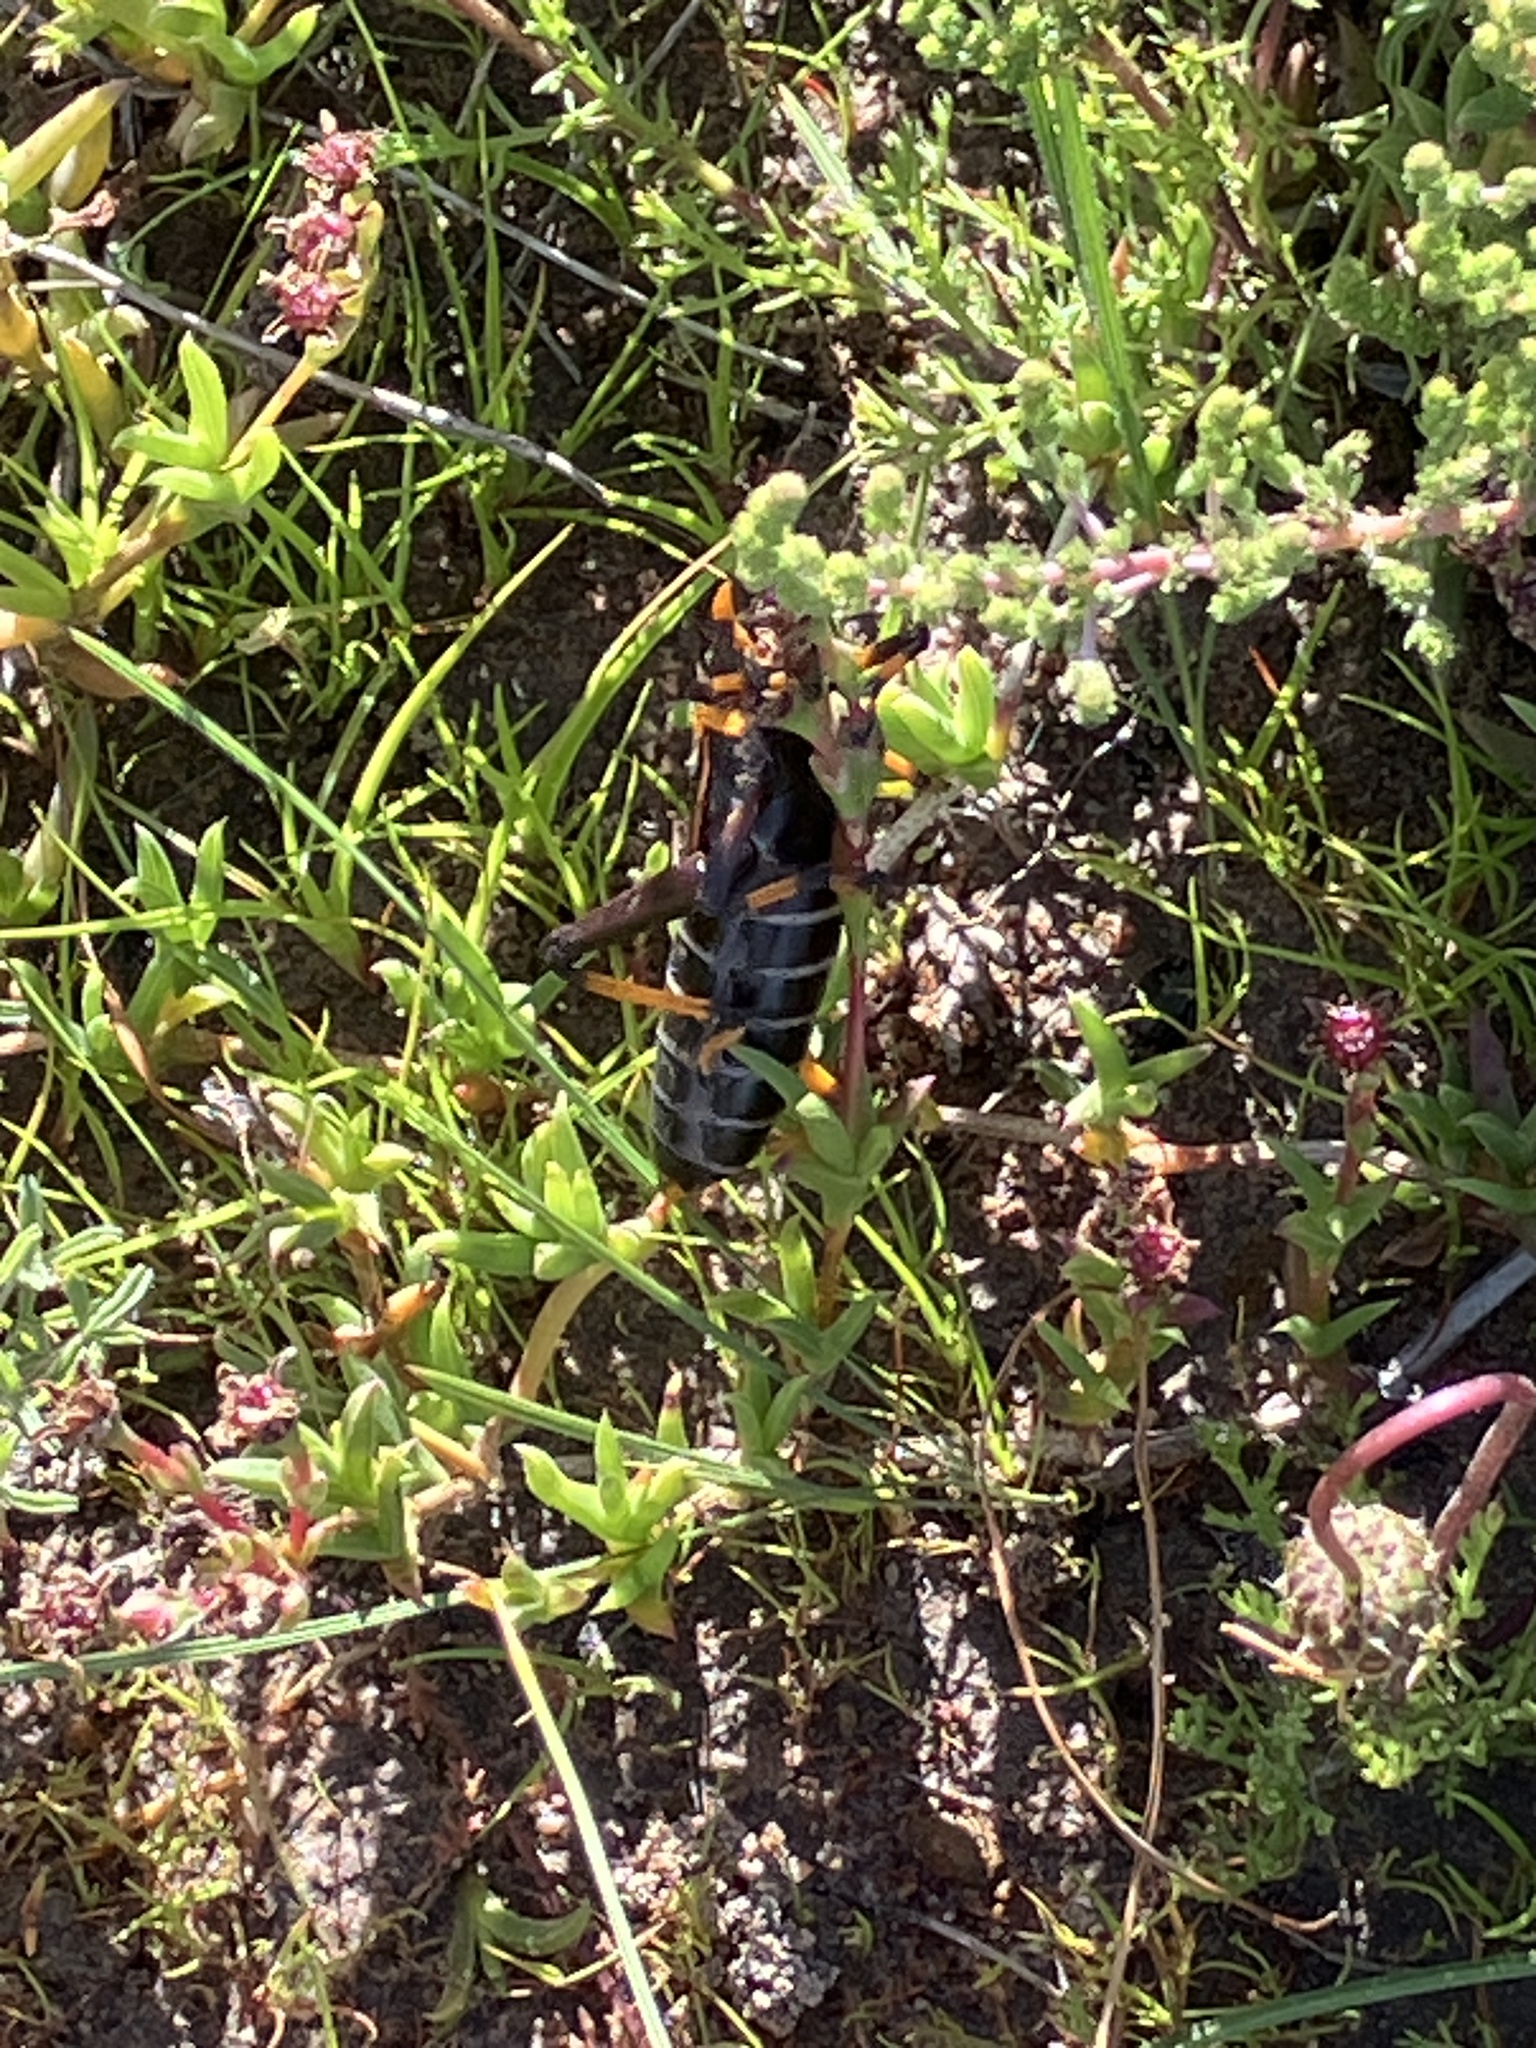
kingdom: Animalia
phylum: Arthropoda
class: Insecta
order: Orthoptera
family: Pyrgomorphidae
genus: Dictyophorus
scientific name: Dictyophorus spumans
